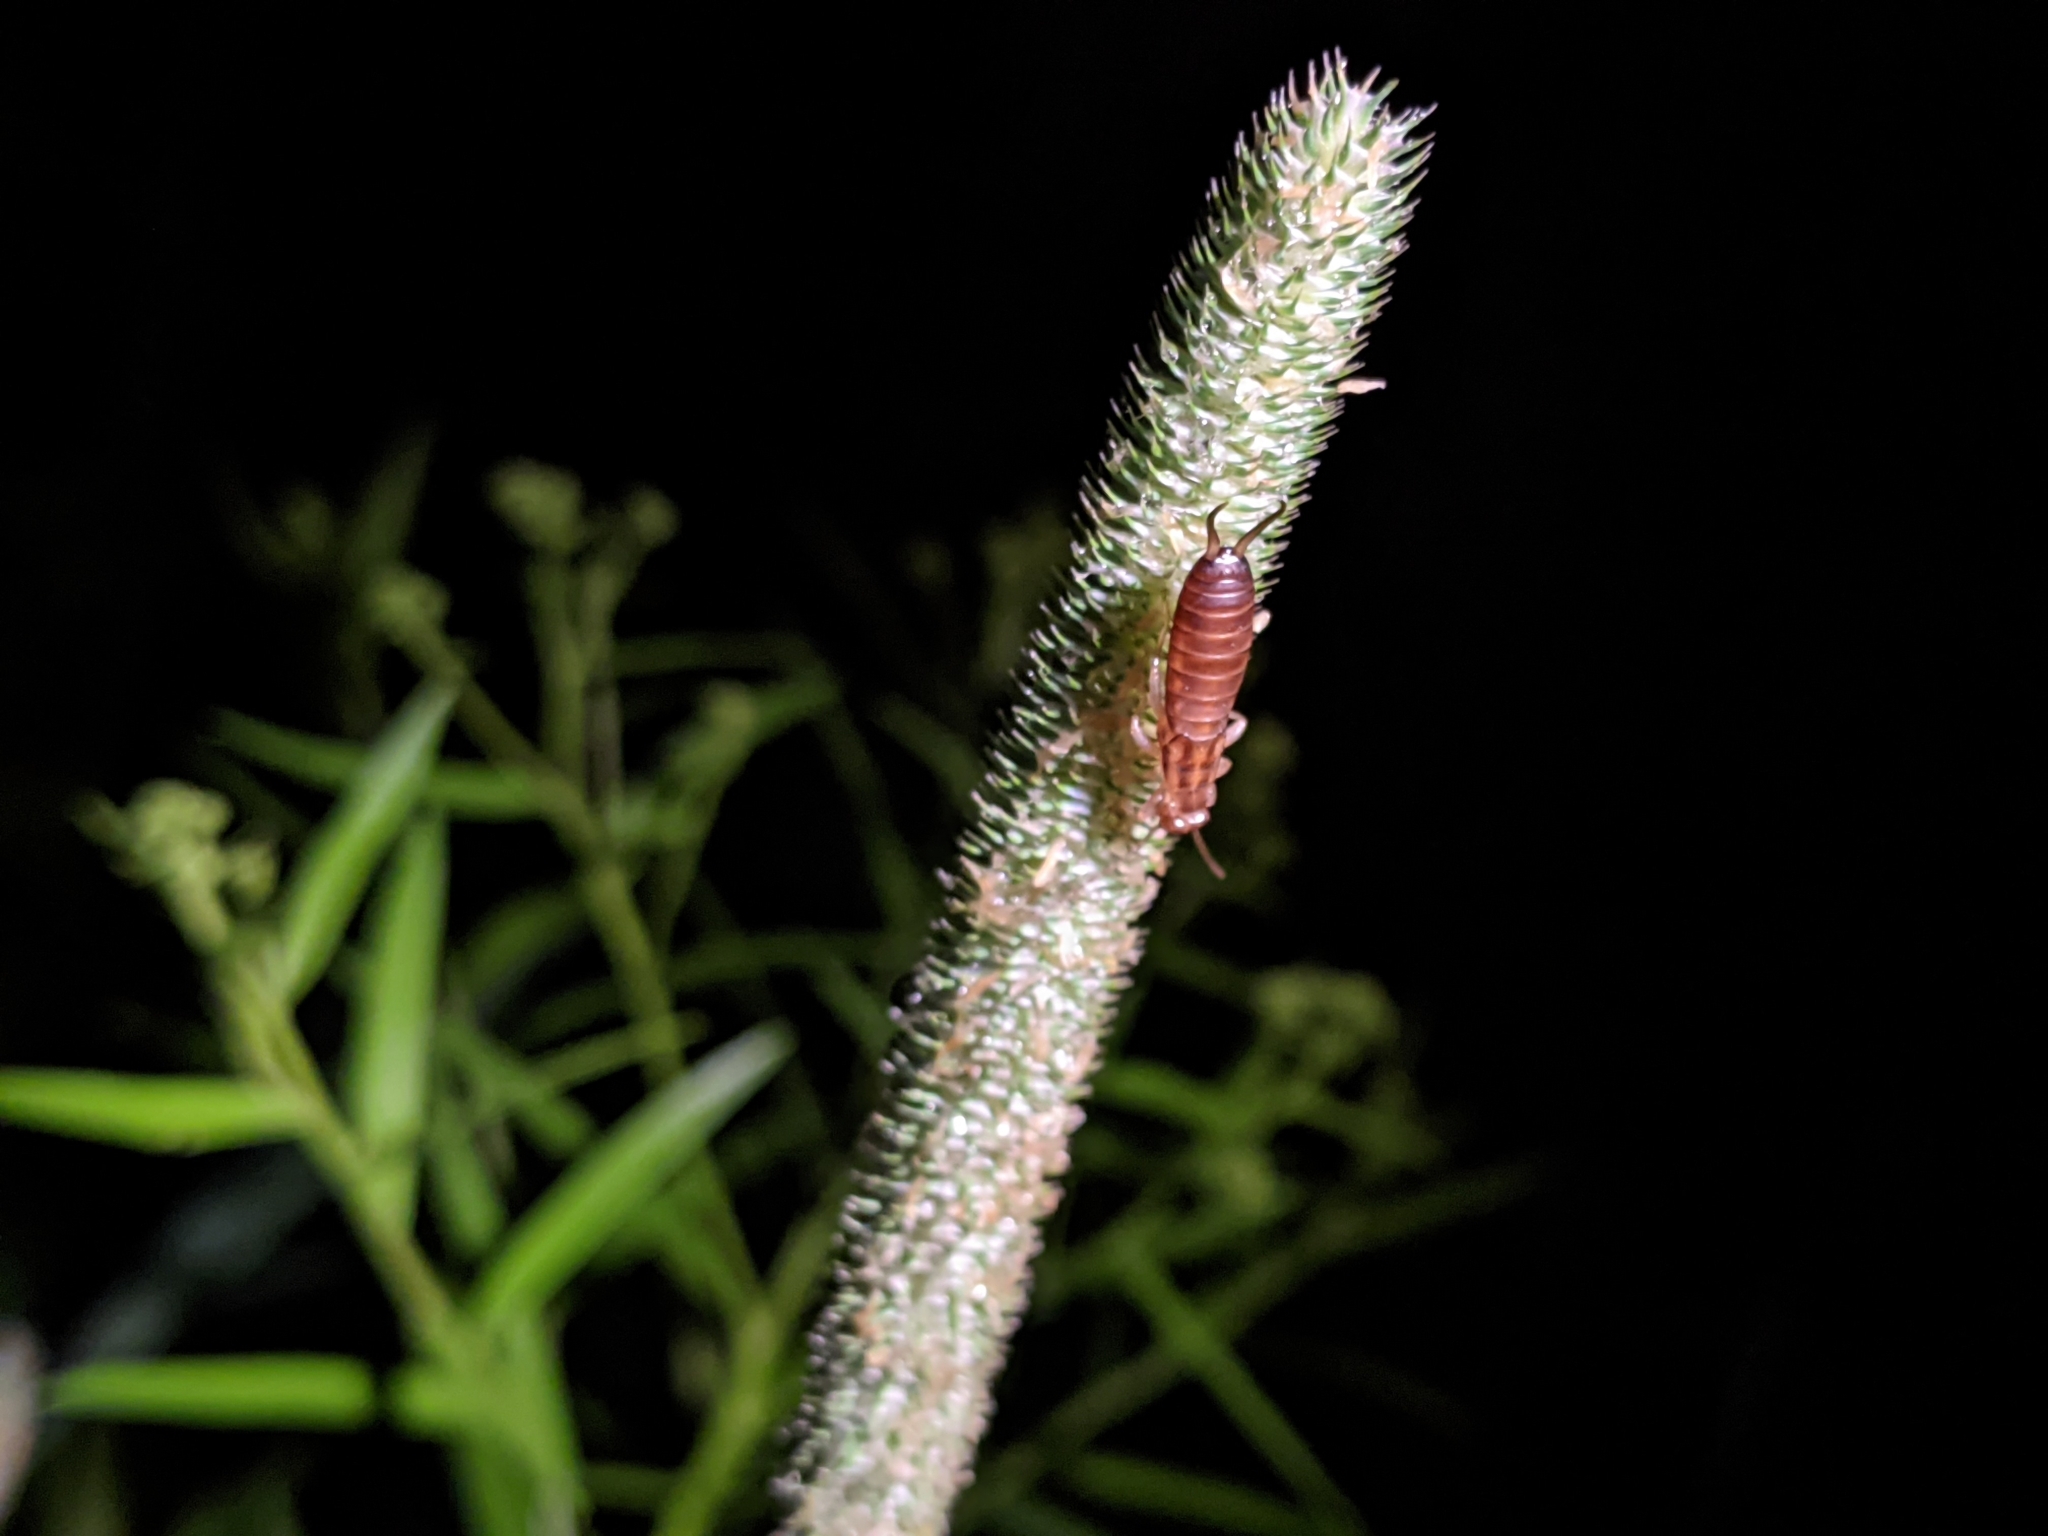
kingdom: Animalia
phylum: Arthropoda
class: Insecta
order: Dermaptera
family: Forficulidae
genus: Forficula
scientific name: Forficula
